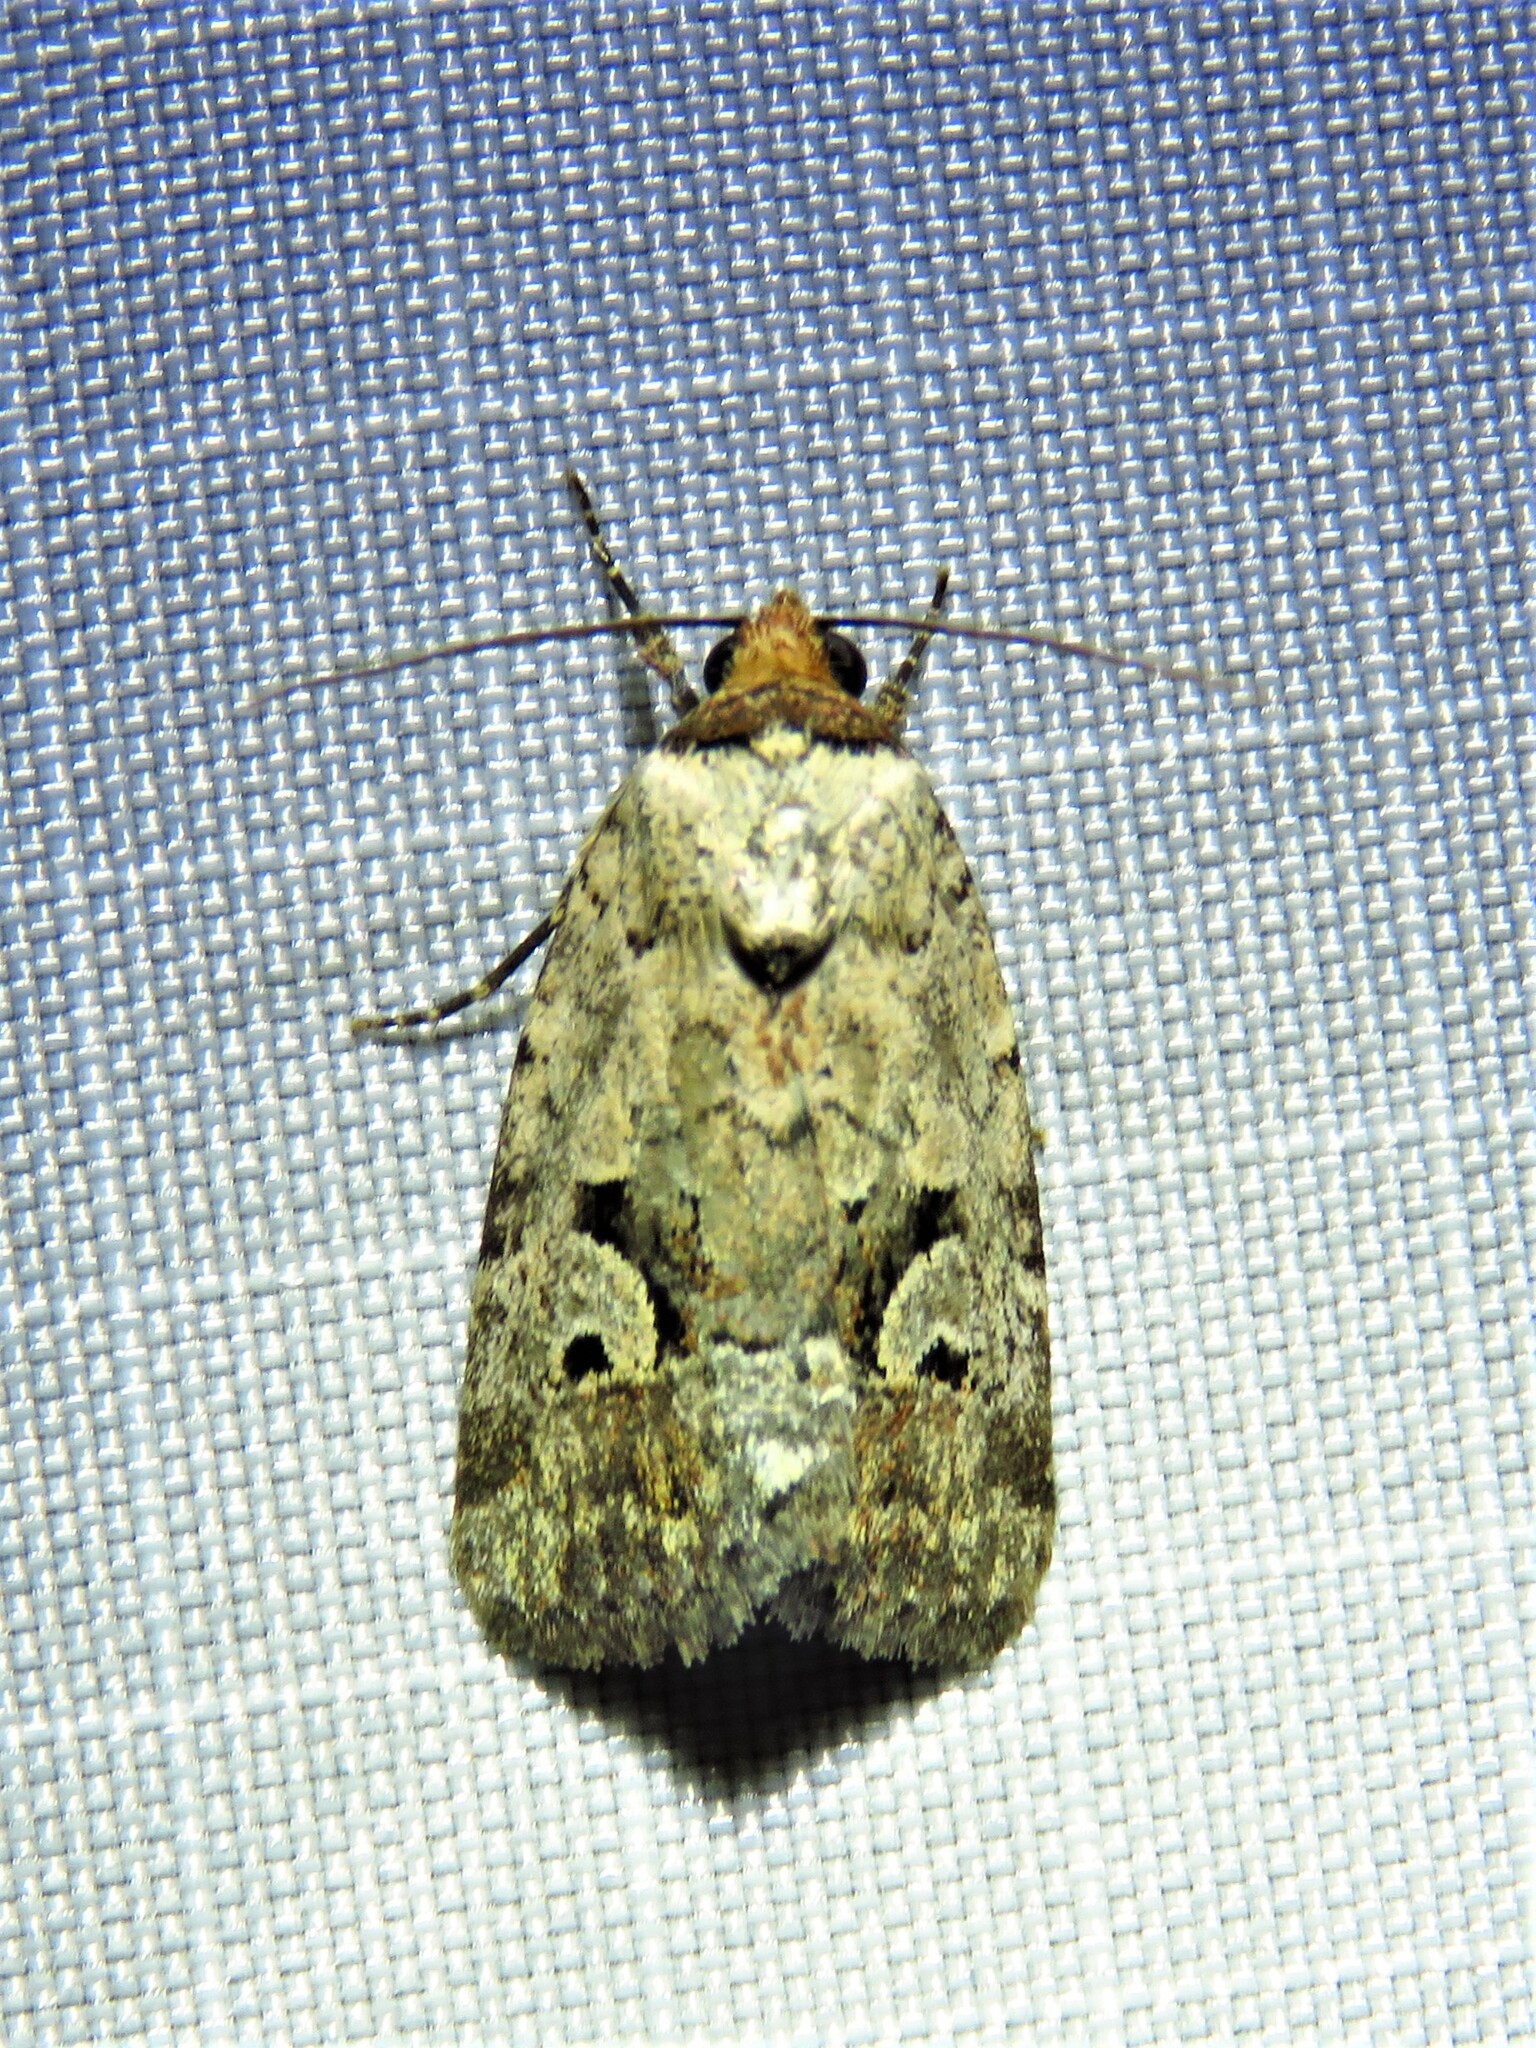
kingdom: Animalia
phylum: Arthropoda
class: Insecta
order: Lepidoptera
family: Noctuidae
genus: Elaphria
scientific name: Elaphria festivoides
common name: Festive midget
